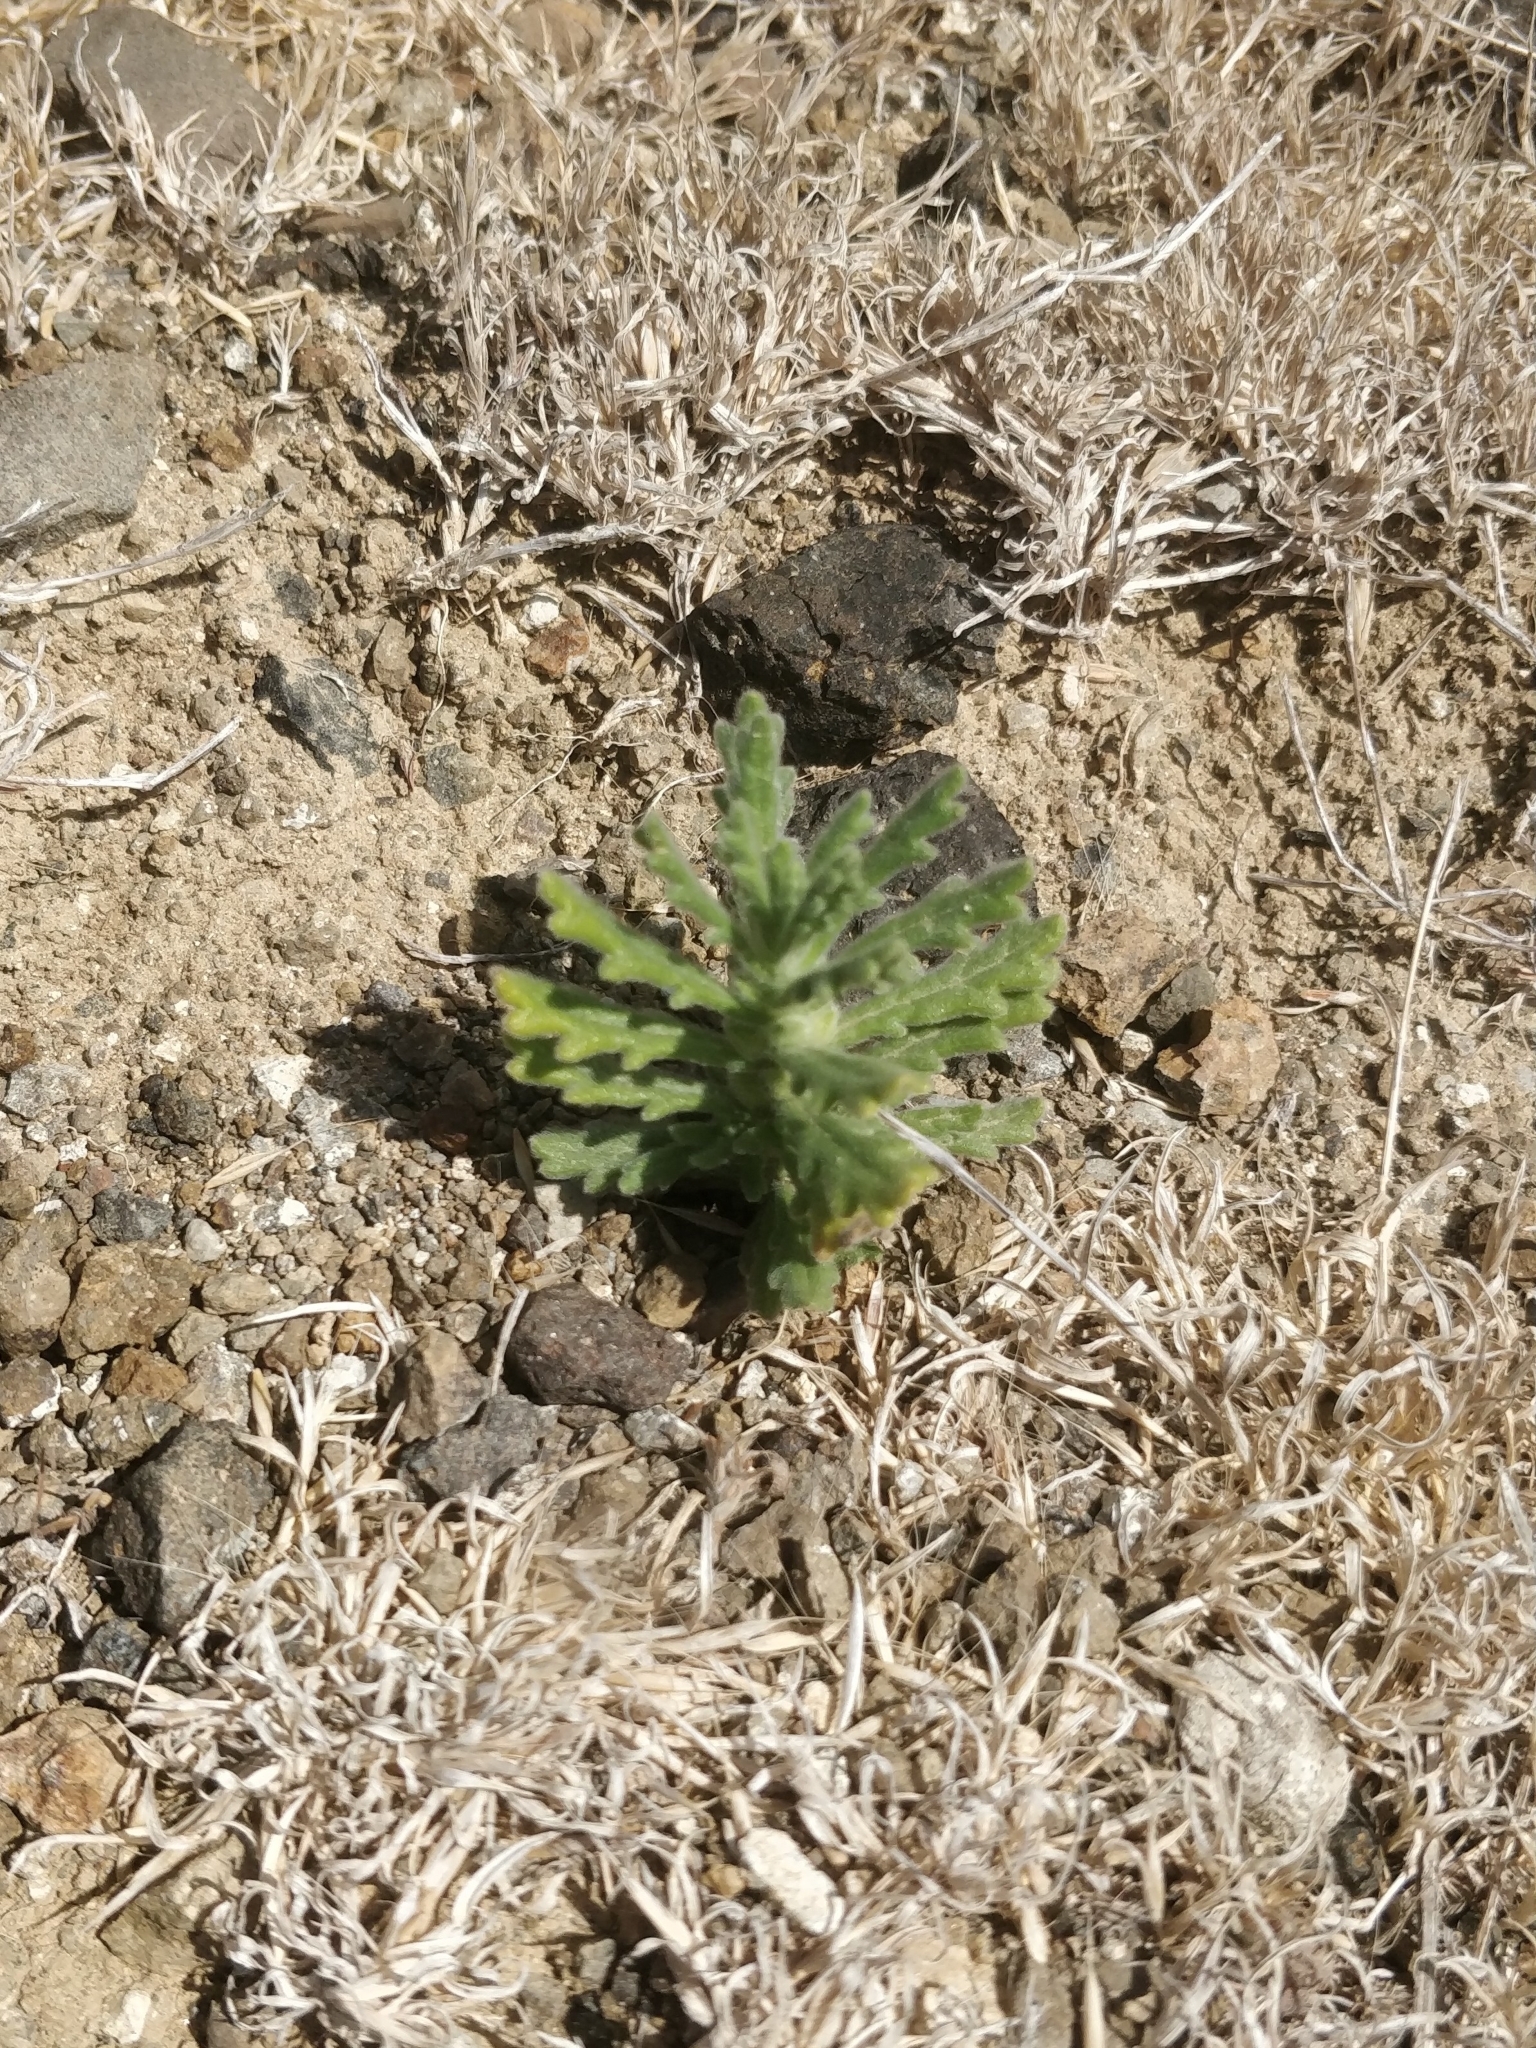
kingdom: Plantae
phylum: Tracheophyta
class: Magnoliopsida
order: Lamiales
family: Lamiaceae
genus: Ajuga
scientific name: Ajuga iva
